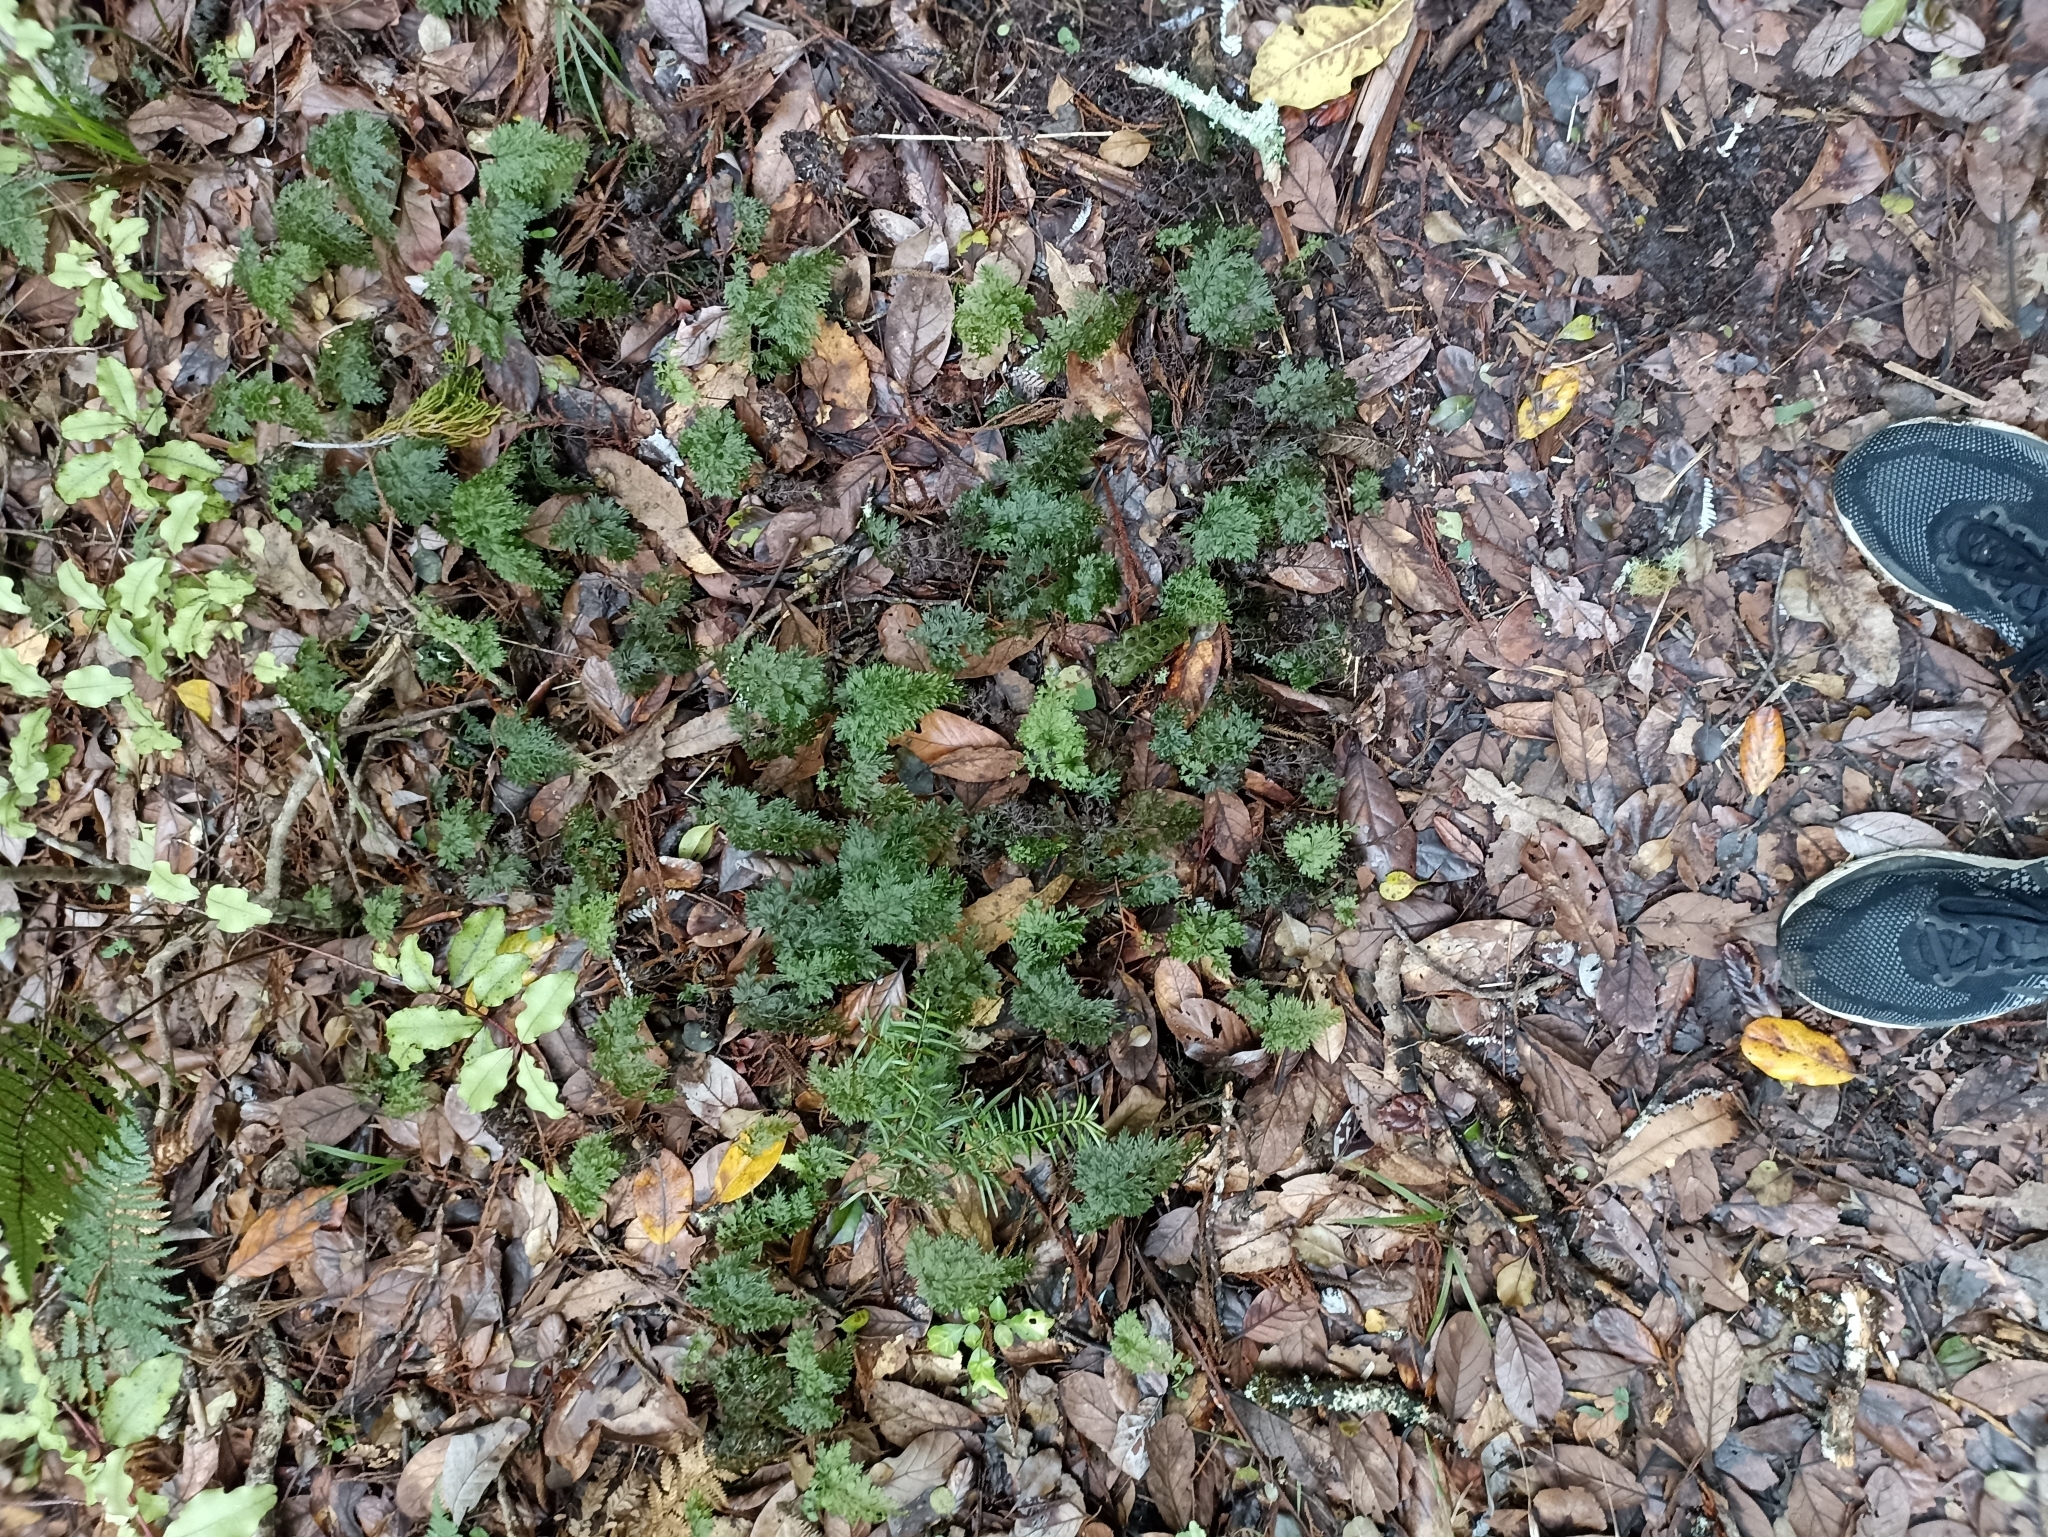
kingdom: Plantae
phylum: Tracheophyta
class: Polypodiopsida
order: Hymenophyllales
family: Hymenophyllaceae
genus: Hymenophyllum
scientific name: Hymenophyllum demissum
